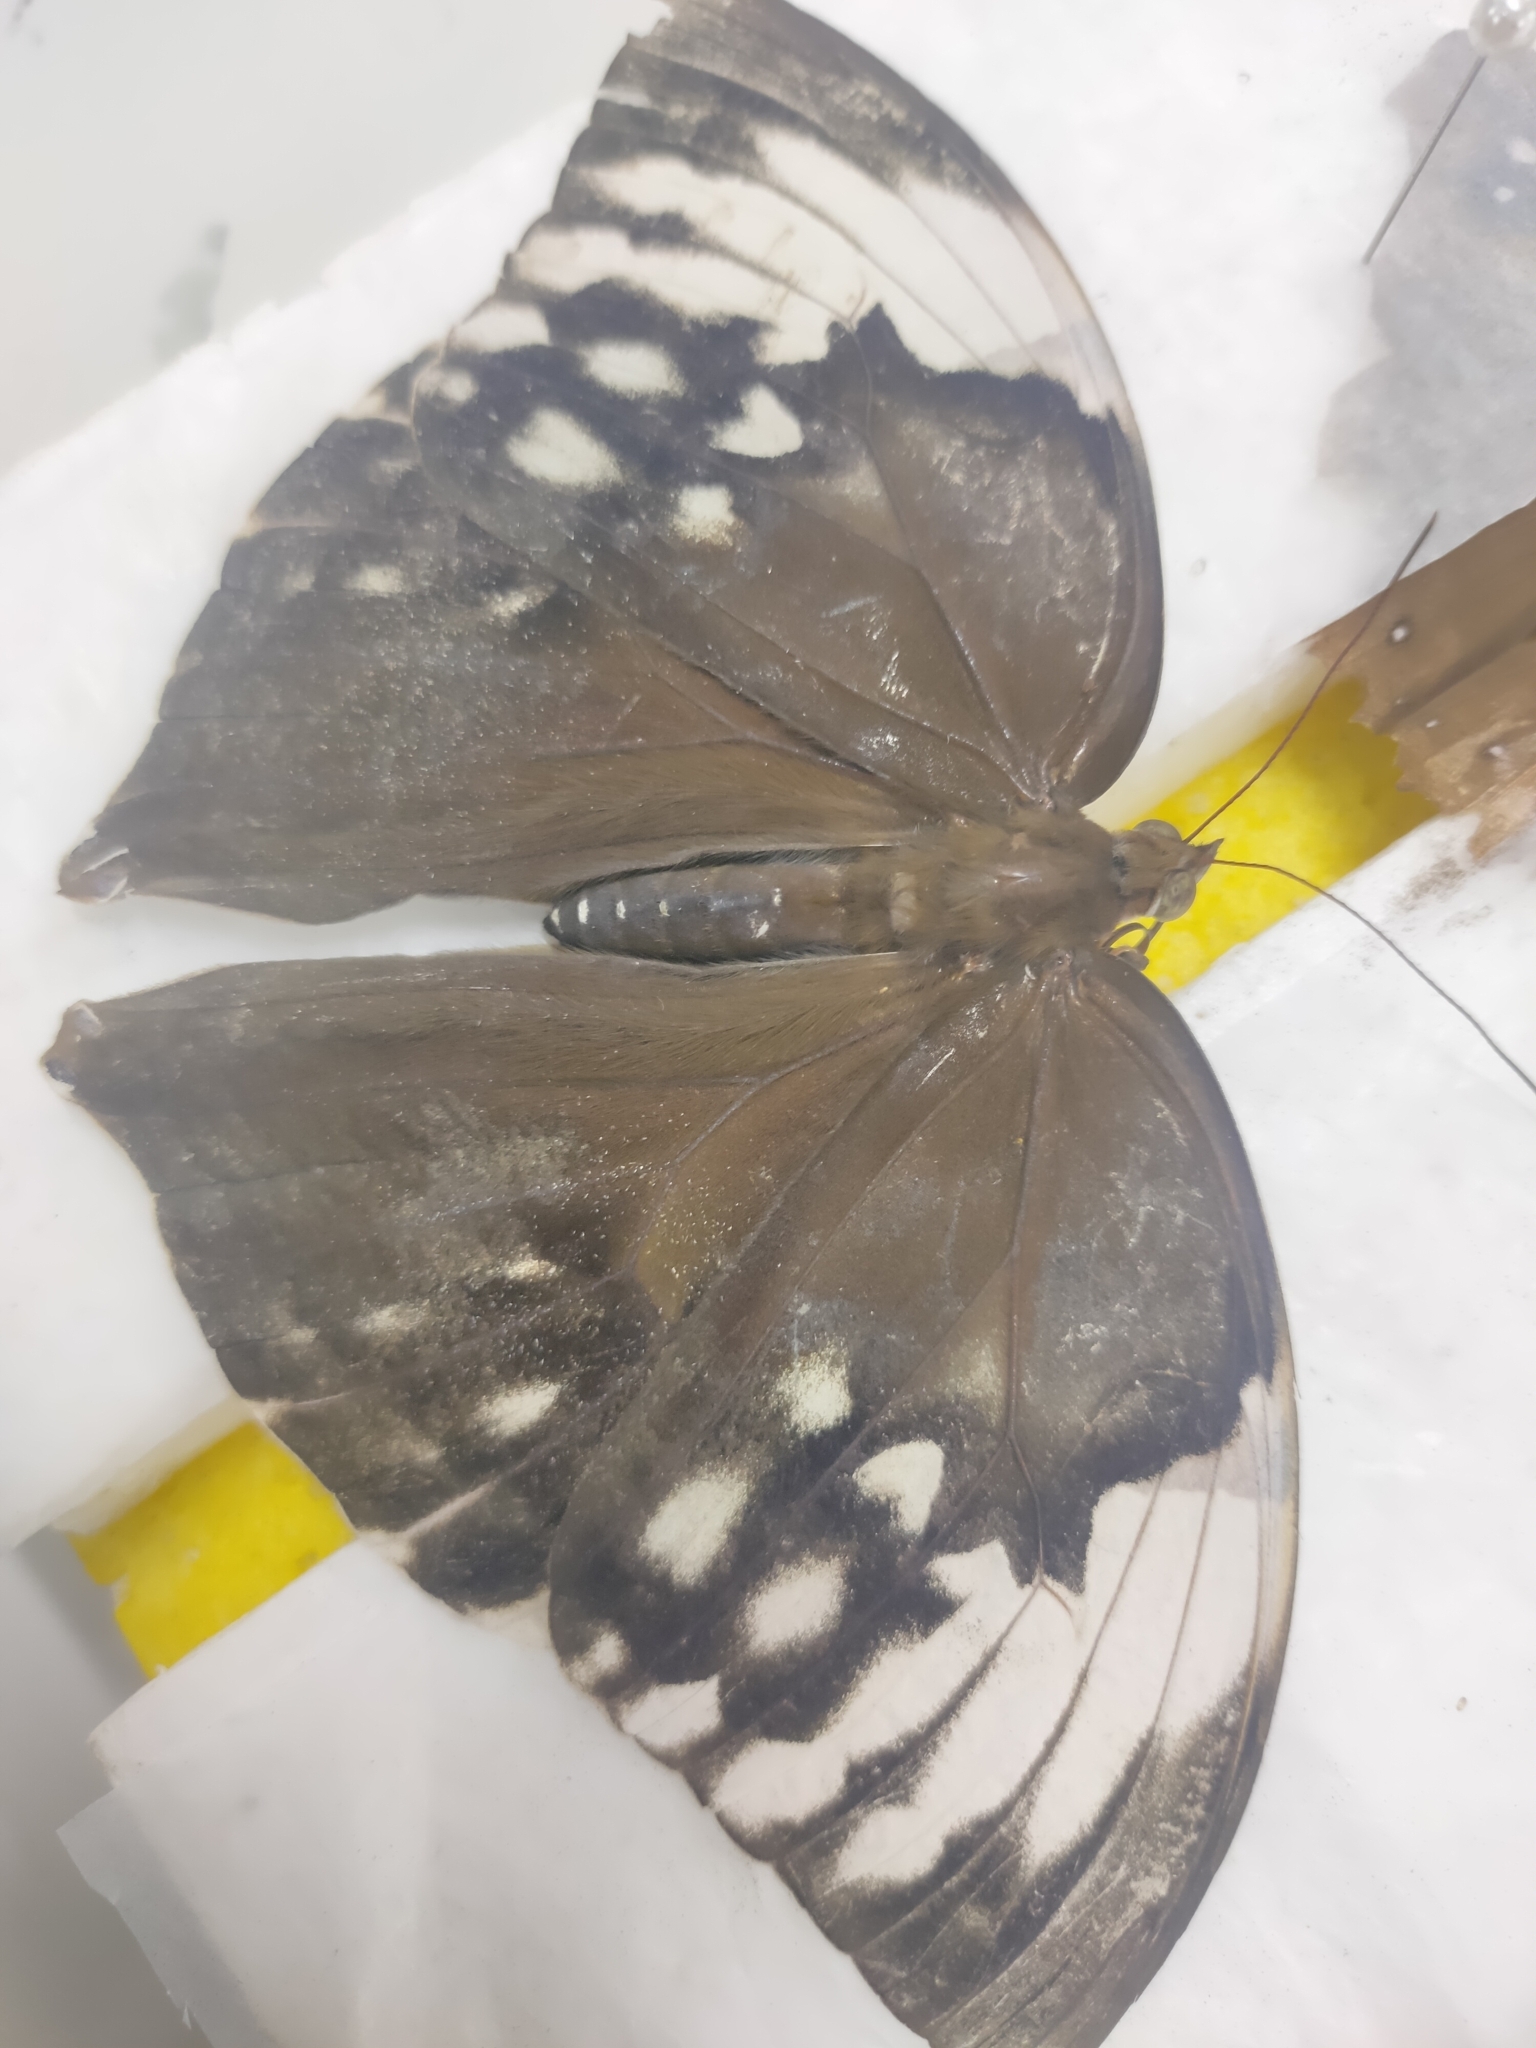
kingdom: Animalia
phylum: Arthropoda
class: Insecta
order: Lepidoptera
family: Nymphalidae
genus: Zeuxidia
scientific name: Zeuxidia aurelia
